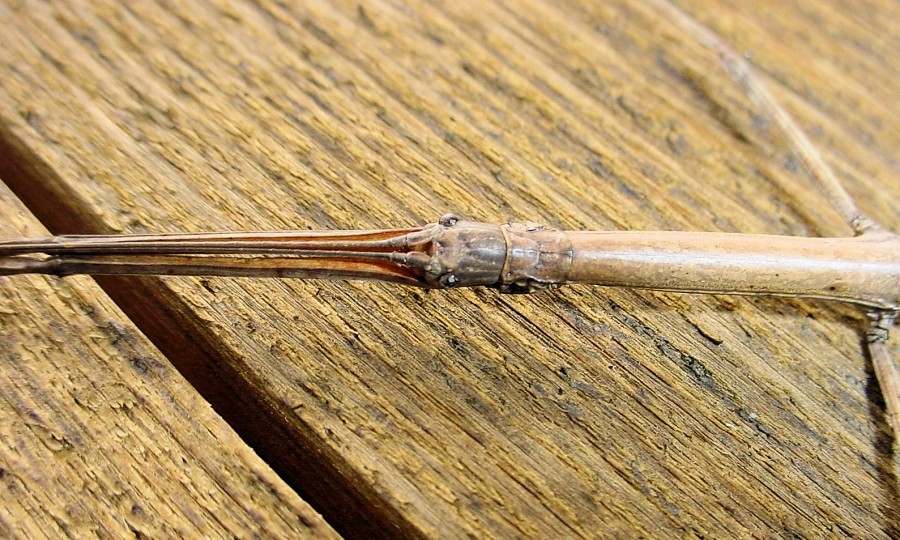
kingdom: Animalia
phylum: Arthropoda
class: Insecta
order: Phasmida
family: Diapheromeridae
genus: Diapheromera
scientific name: Diapheromera femorata
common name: Common american walkingstick
